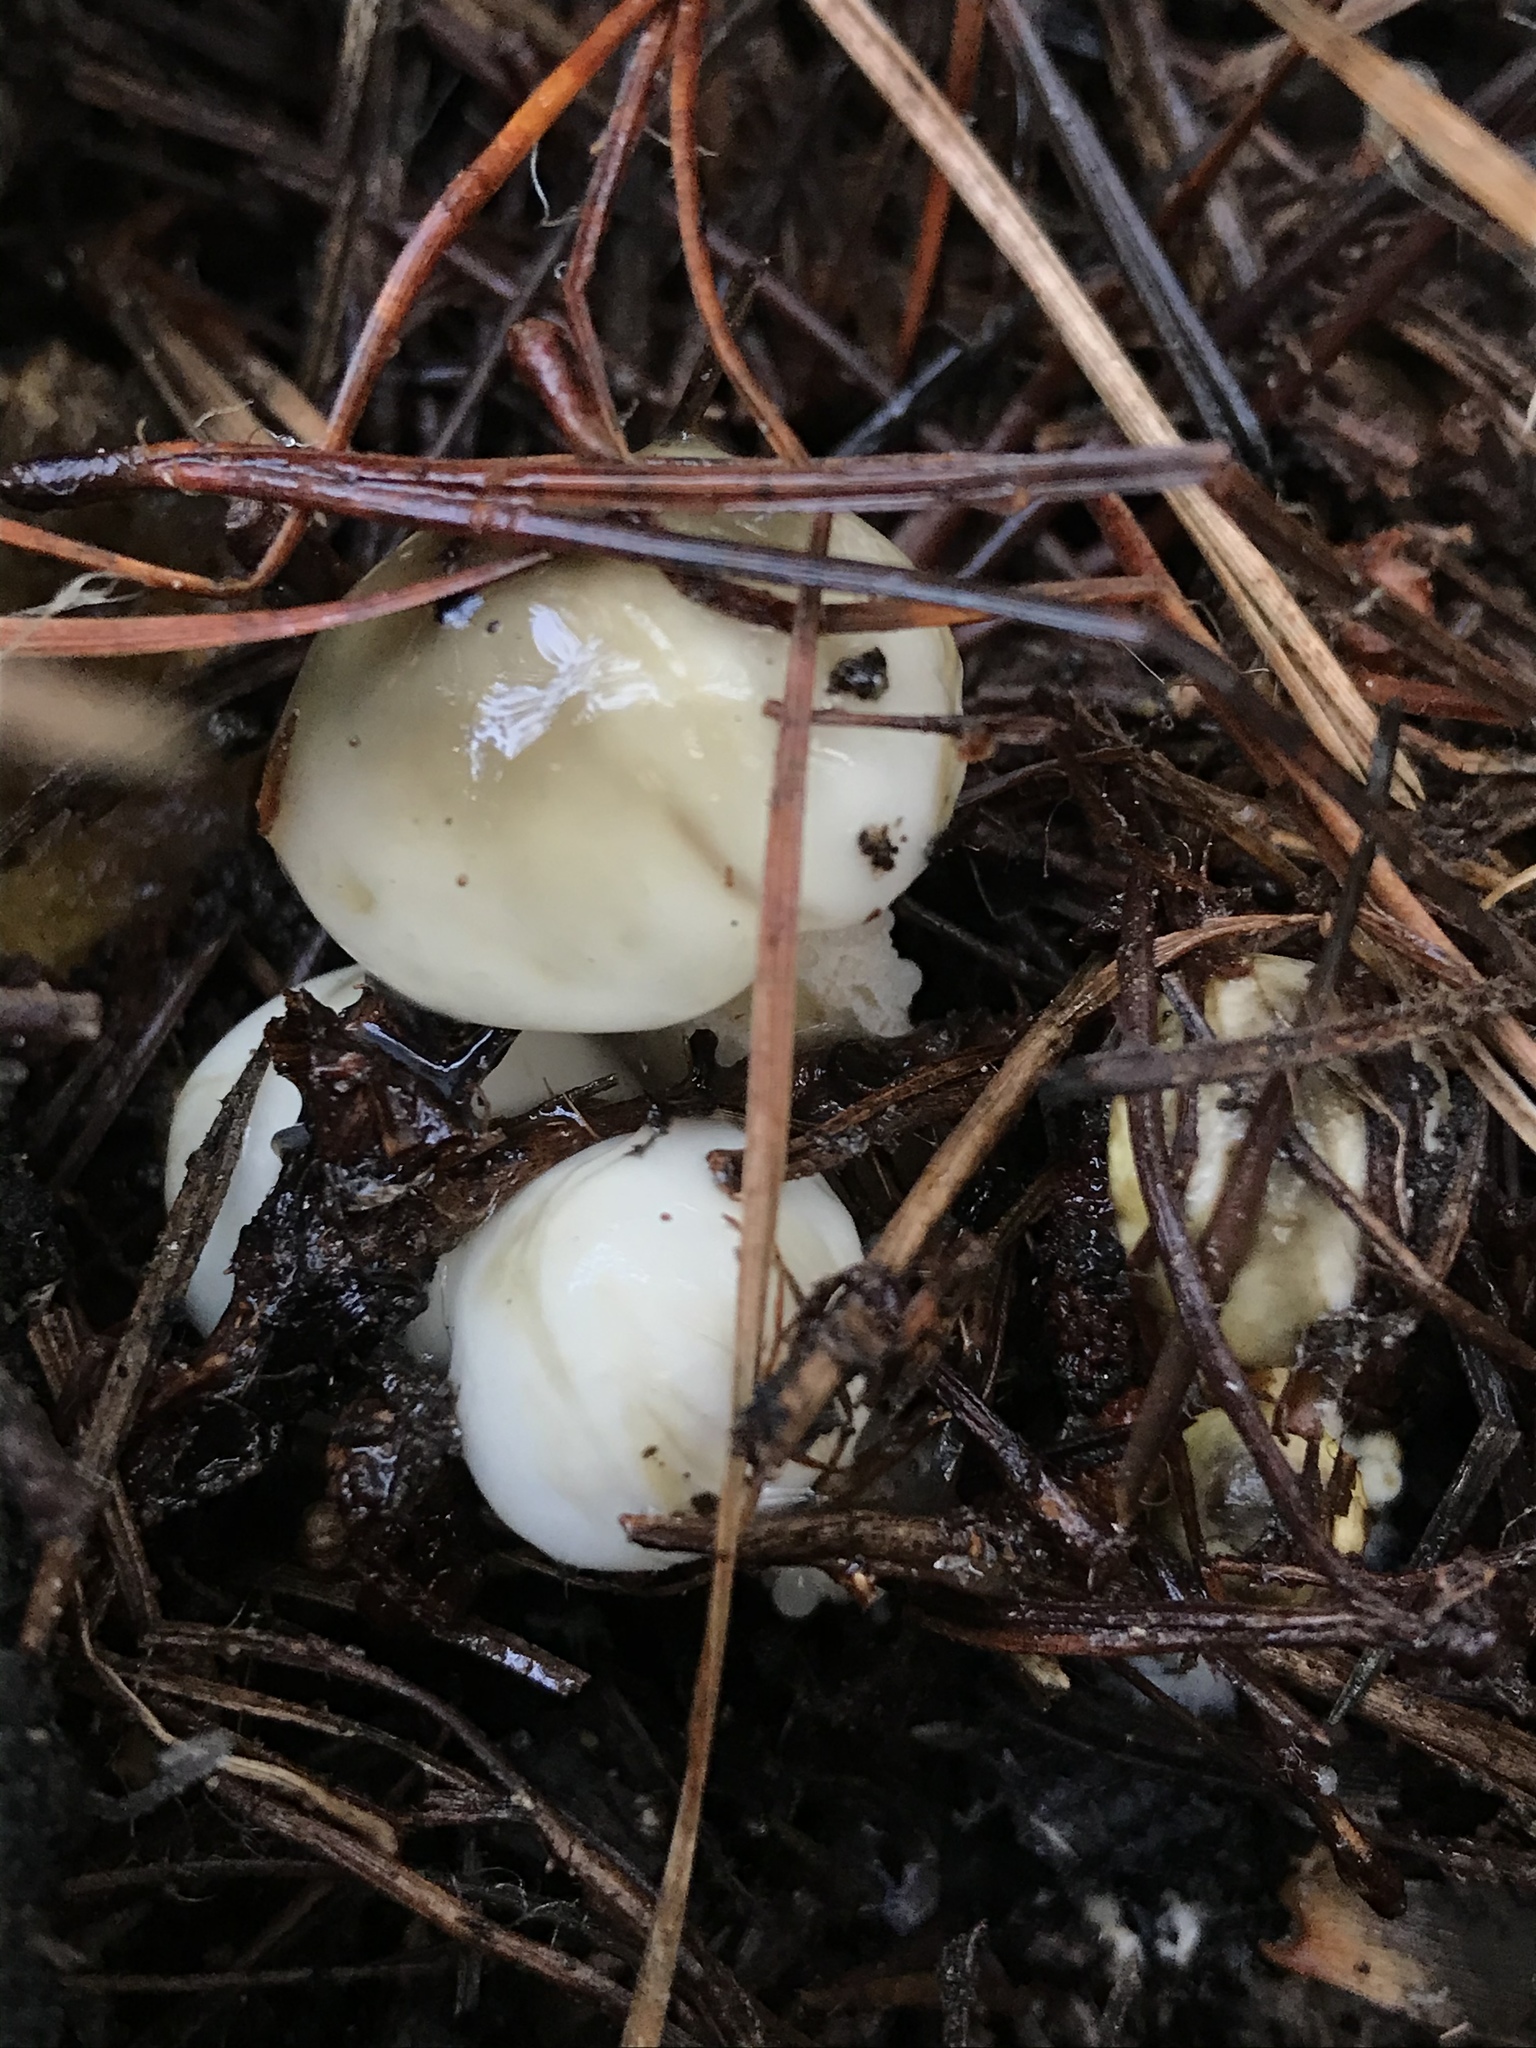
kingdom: Fungi
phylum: Basidiomycota
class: Agaricomycetes
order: Boletales
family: Suillaceae
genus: Suillus
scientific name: Suillus pungens
